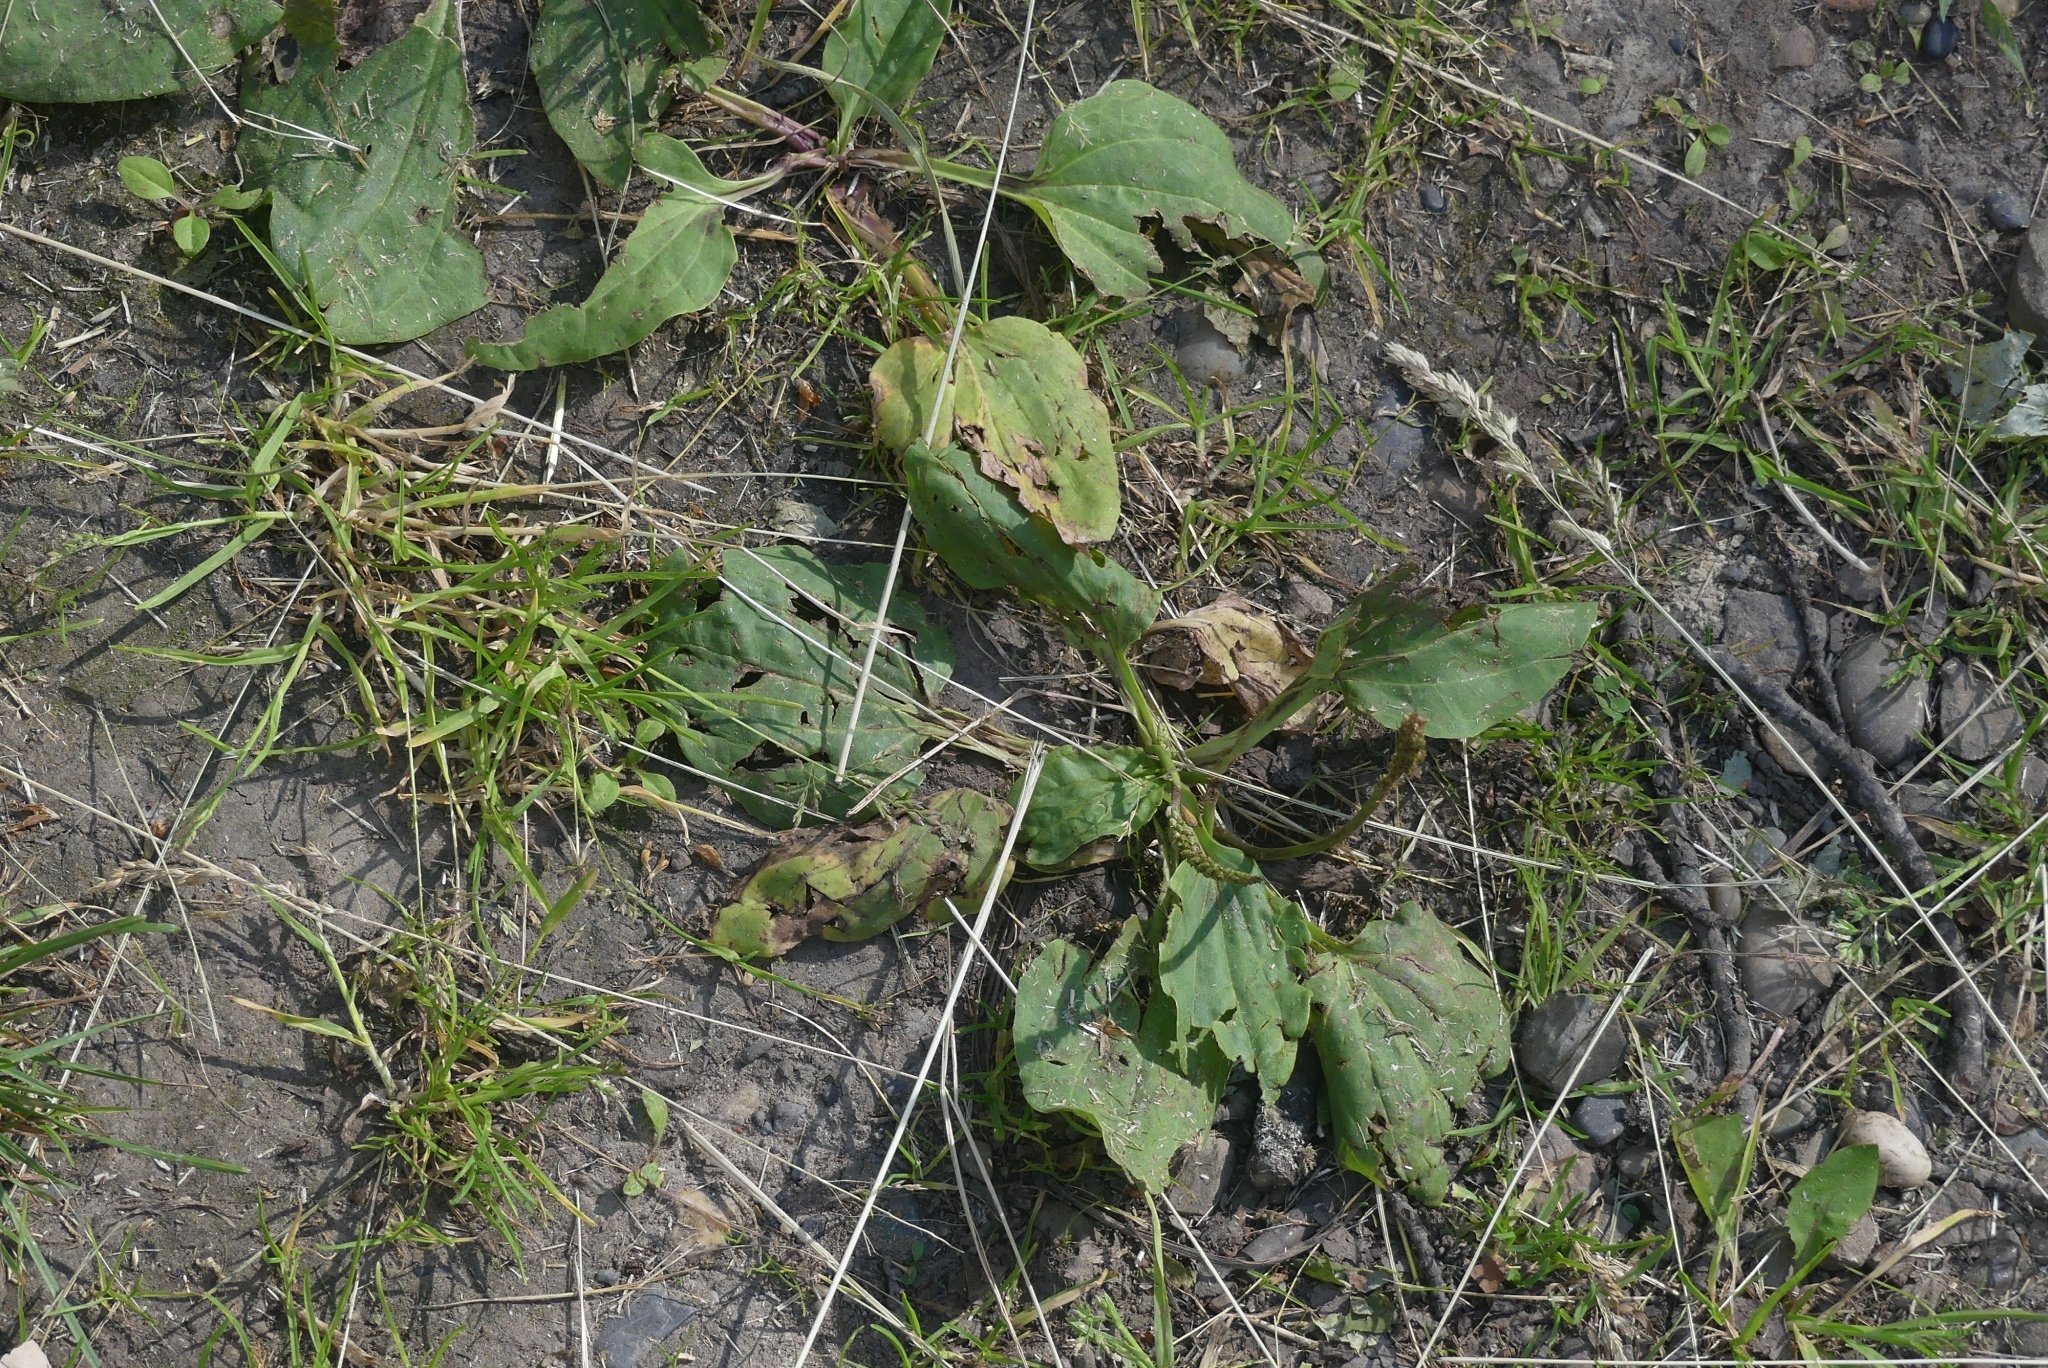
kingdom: Plantae
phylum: Tracheophyta
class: Magnoliopsida
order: Lamiales
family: Plantaginaceae
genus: Plantago
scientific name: Plantago major
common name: Common plantain
